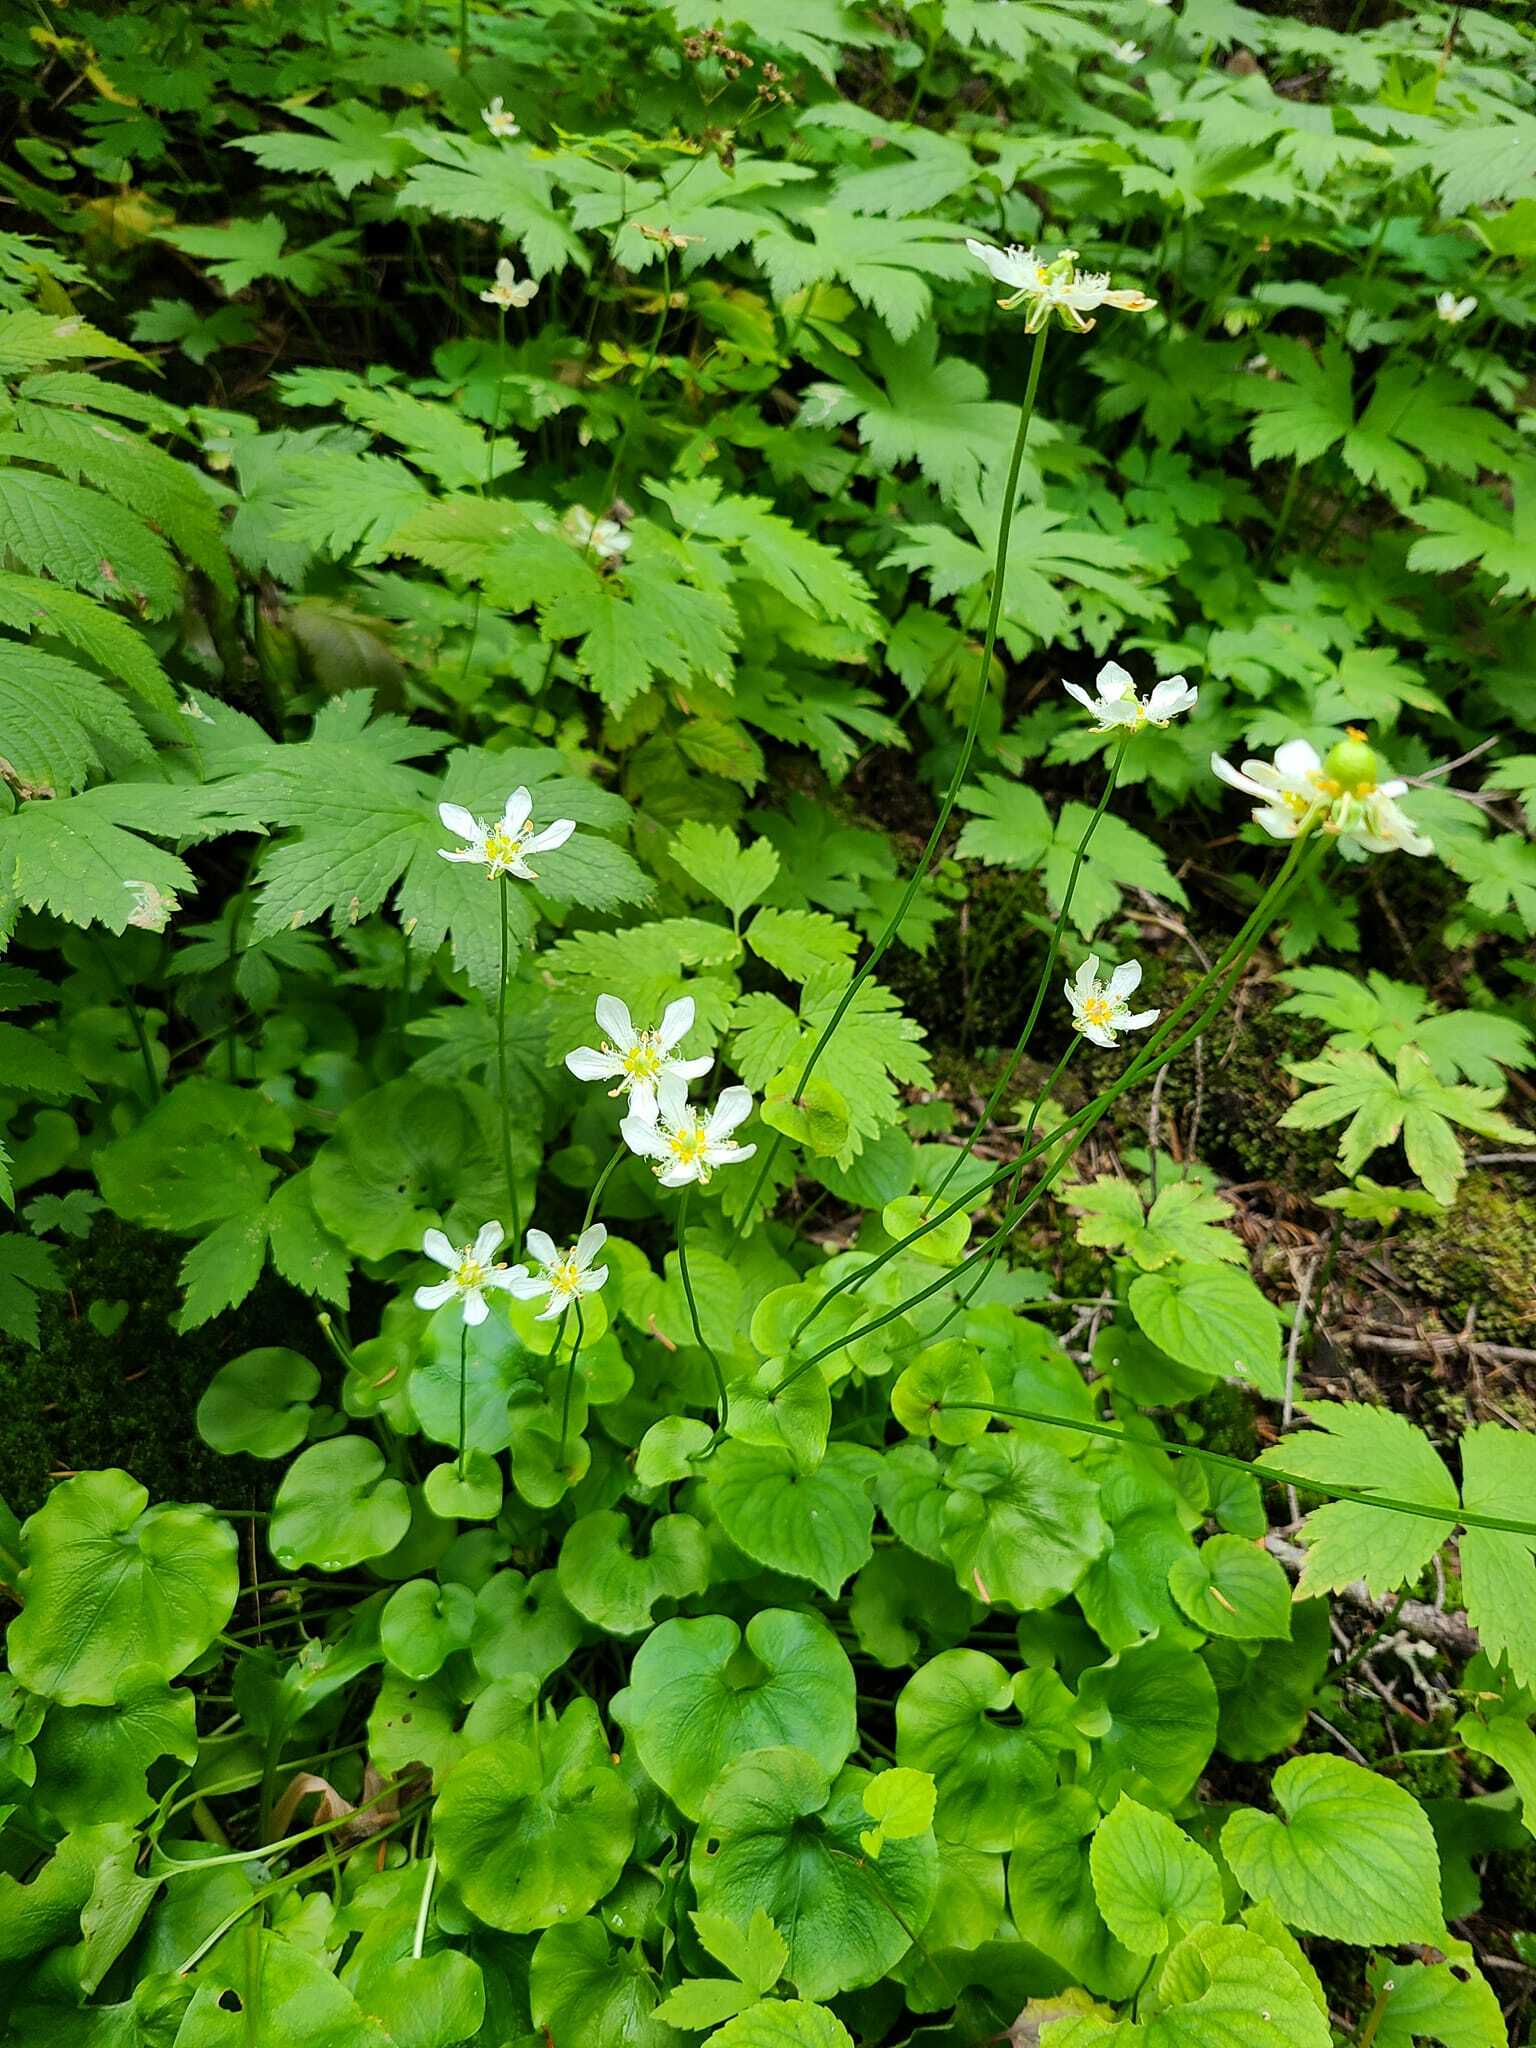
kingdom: Plantae
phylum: Tracheophyta
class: Magnoliopsida
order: Celastrales
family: Parnassiaceae
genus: Parnassia
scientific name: Parnassia fimbriata
